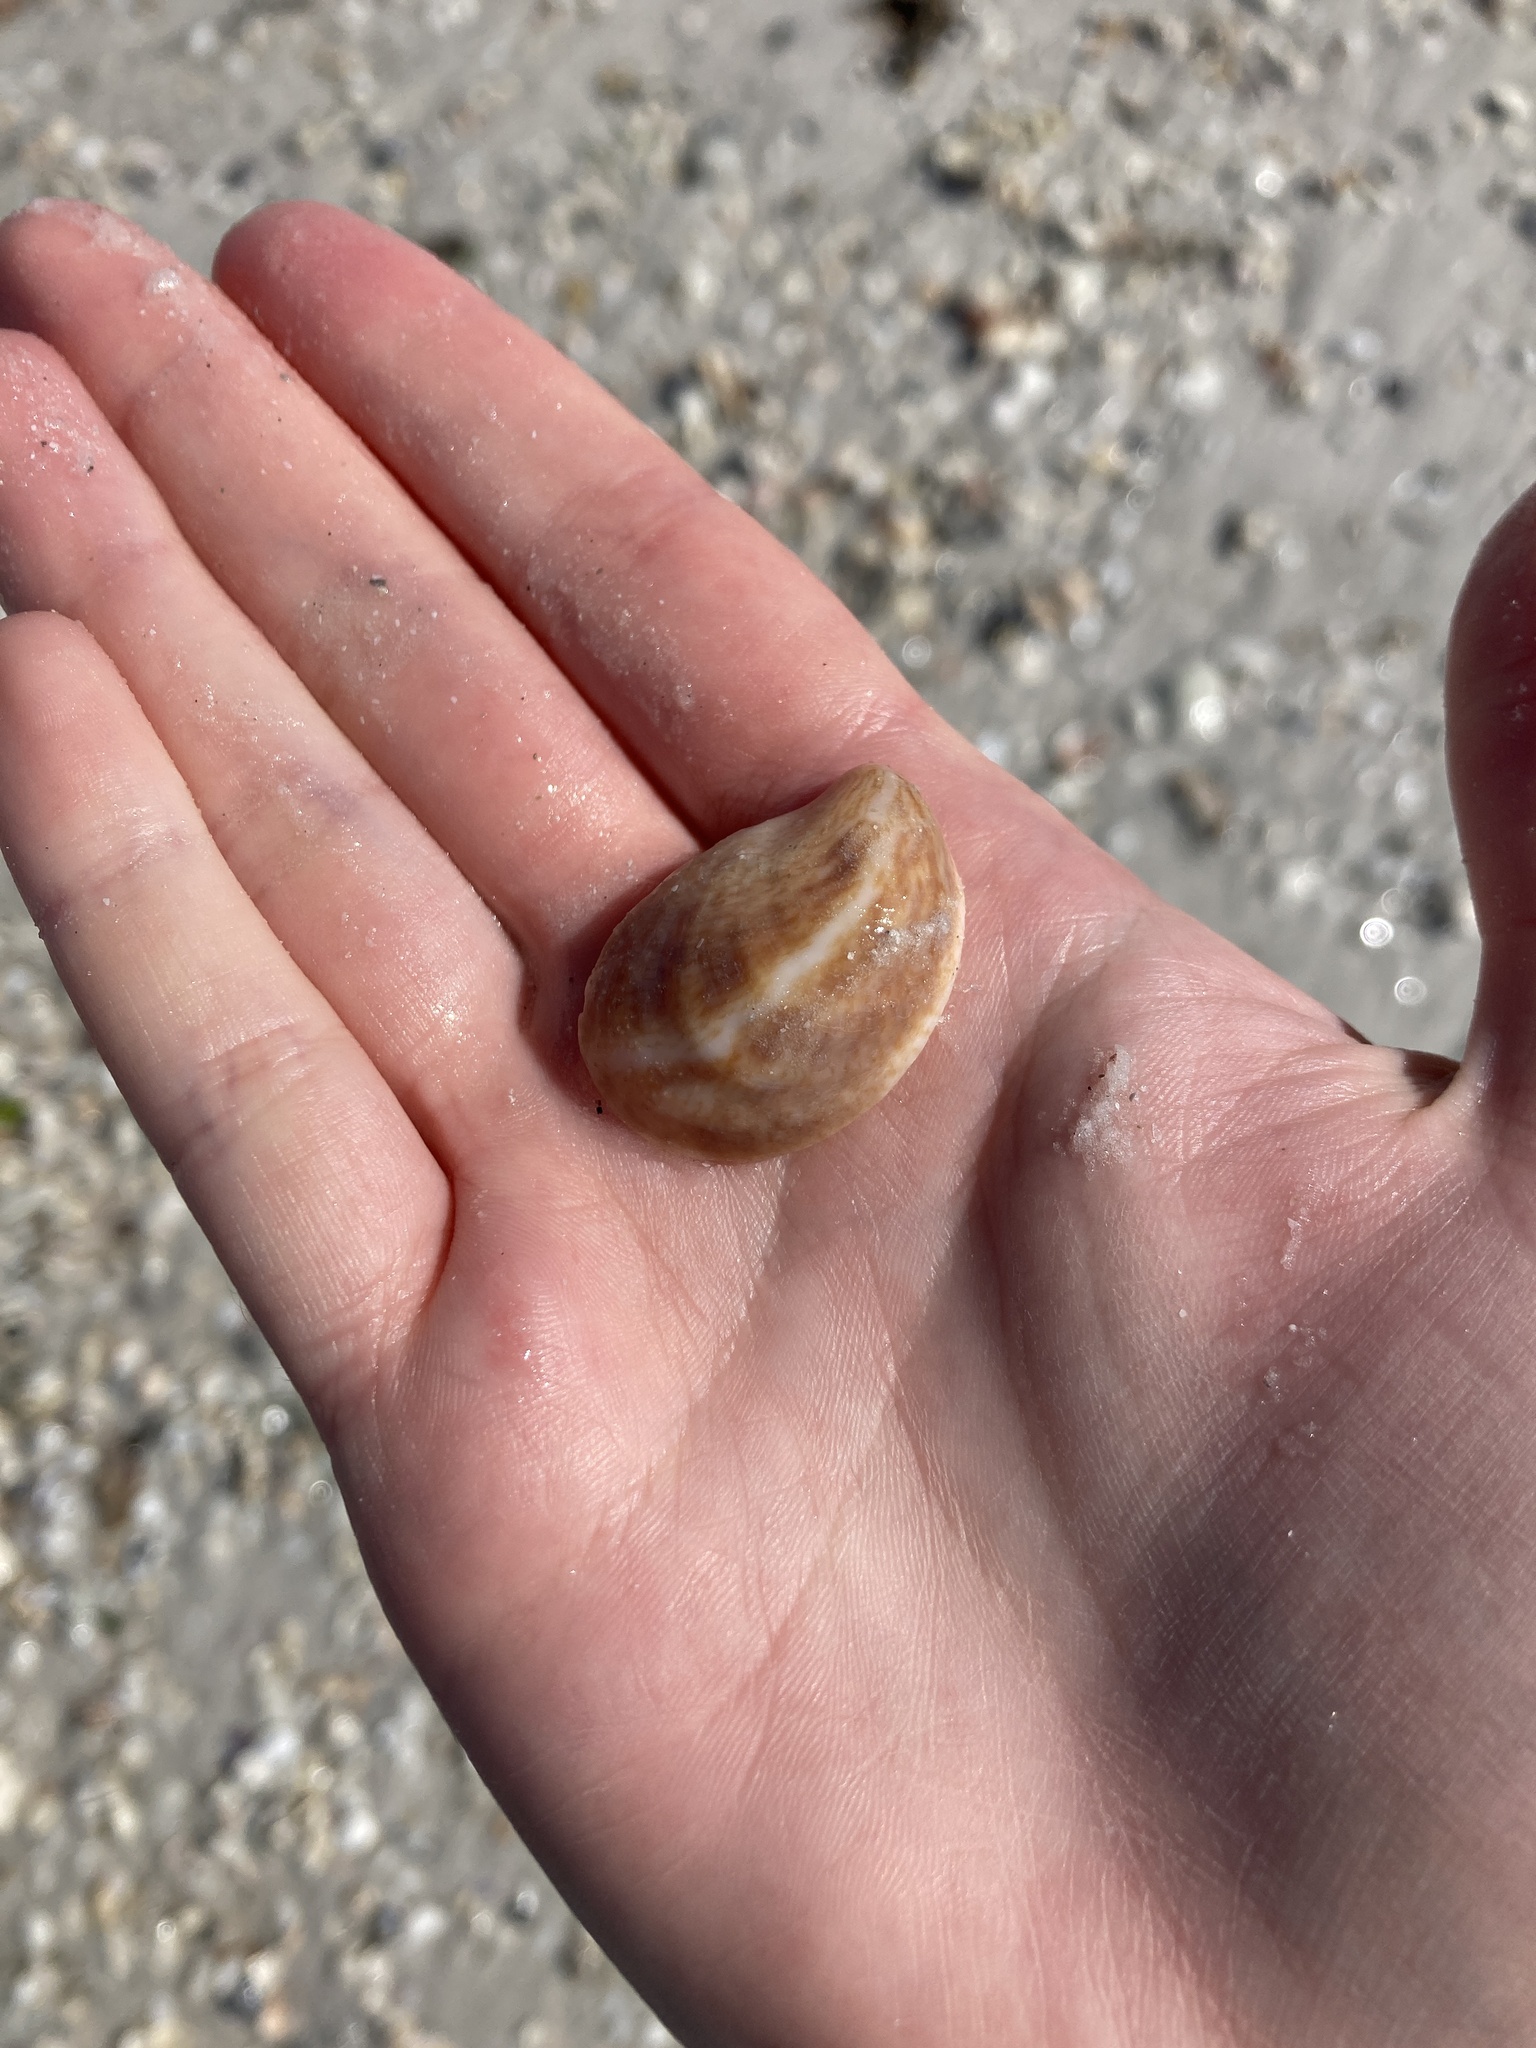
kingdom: Animalia
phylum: Mollusca
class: Gastropoda
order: Littorinimorpha
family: Calyptraeidae
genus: Crepidula
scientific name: Crepidula fornicata
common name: Slipper limpet
